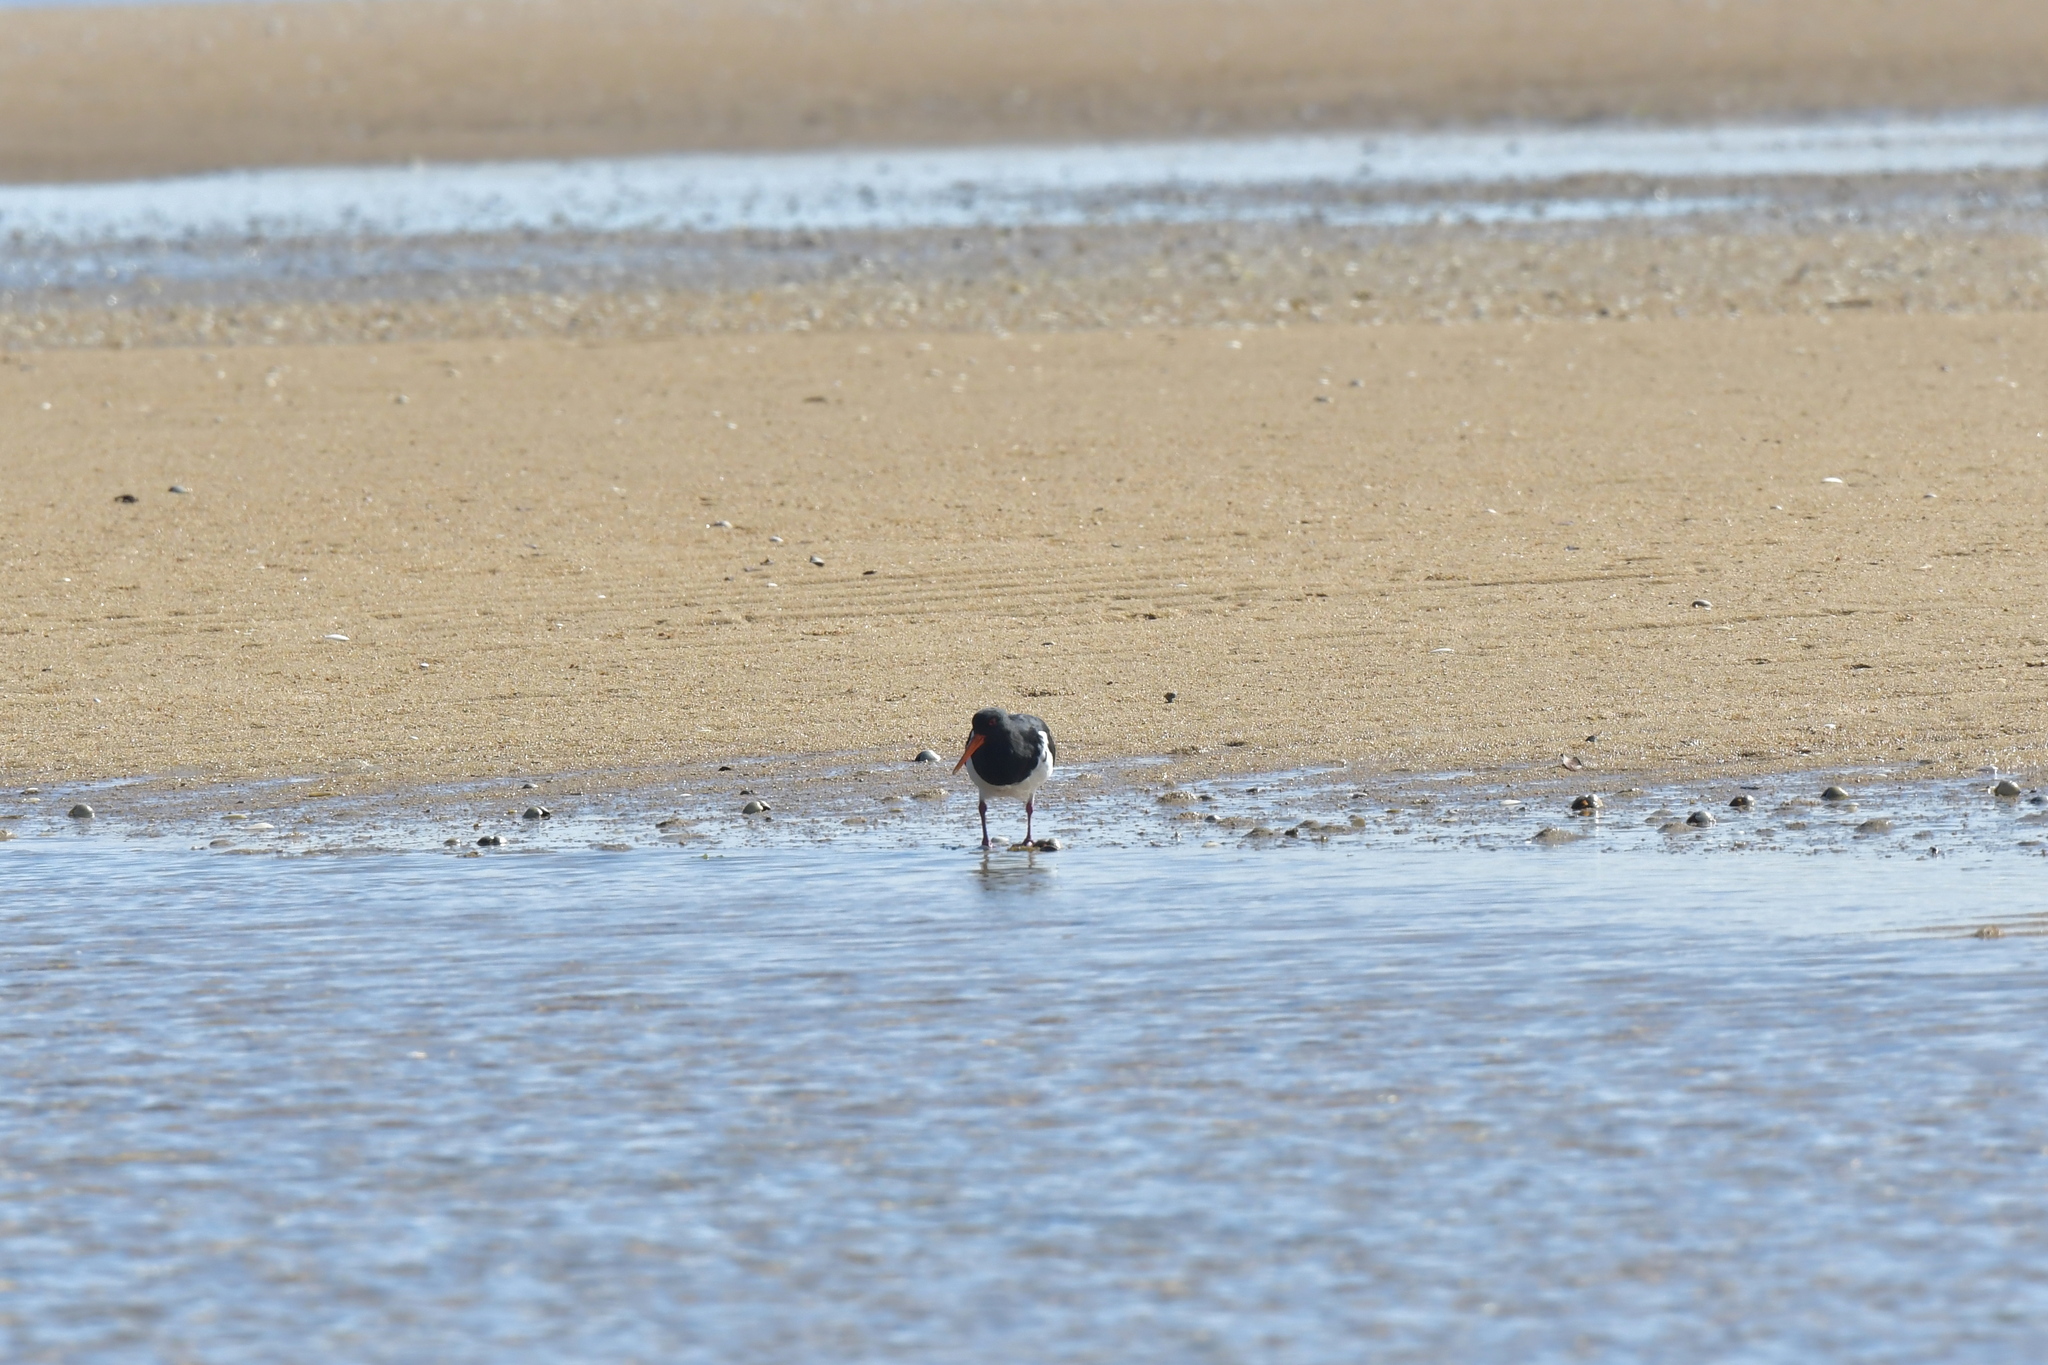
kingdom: Animalia
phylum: Chordata
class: Aves
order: Charadriiformes
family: Haematopodidae
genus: Haematopus
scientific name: Haematopus finschi
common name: South island oystercatcher
